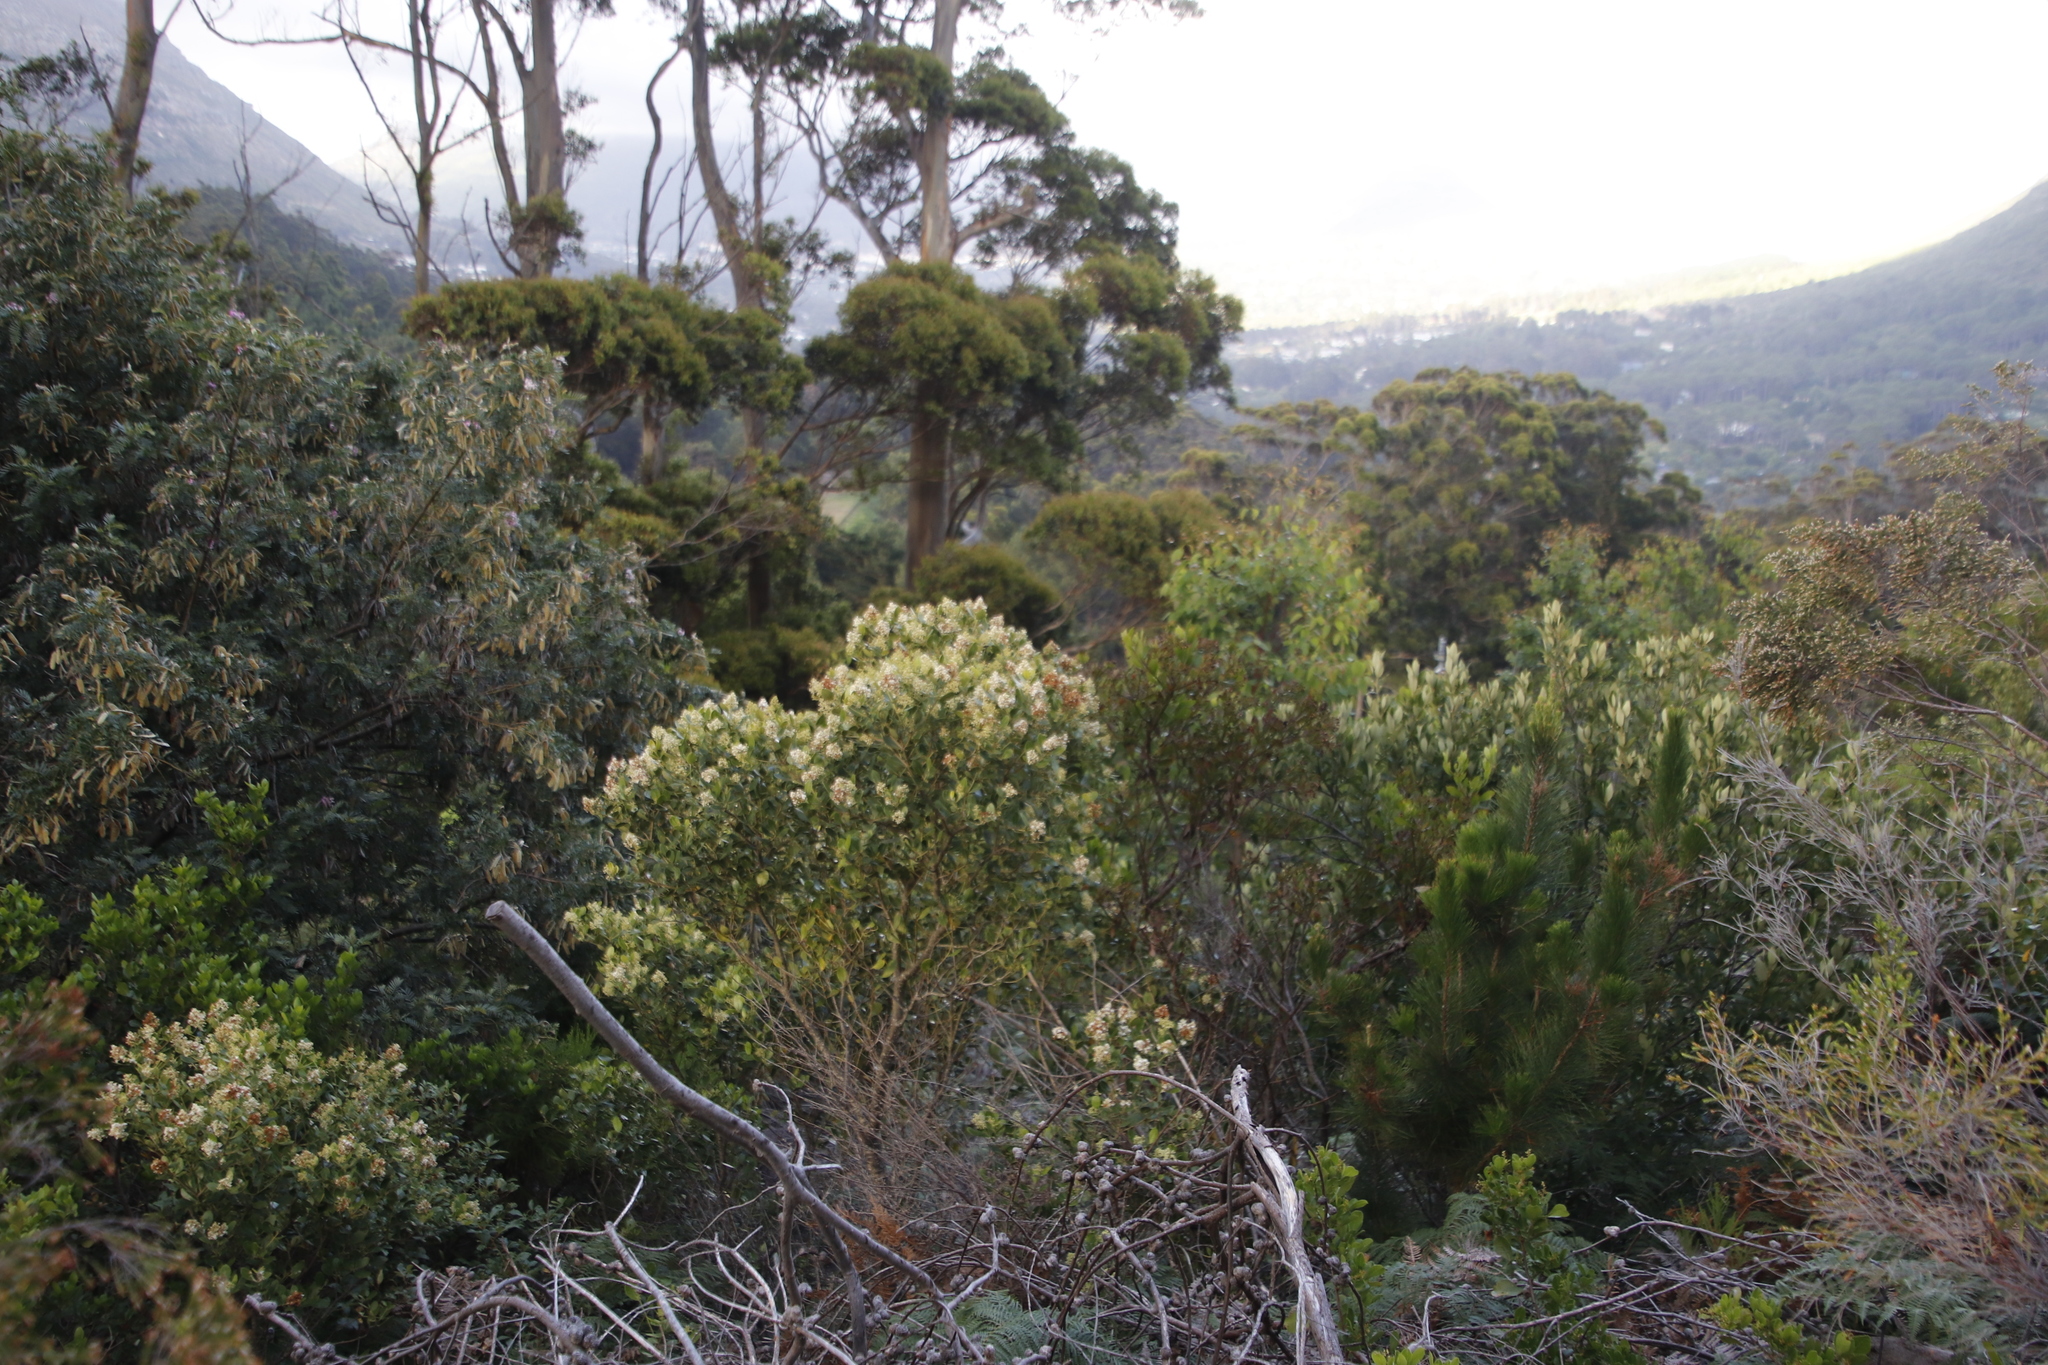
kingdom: Plantae
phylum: Tracheophyta
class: Magnoliopsida
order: Lamiales
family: Oleaceae
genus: Olea
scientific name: Olea capensis
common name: Black ironwood
